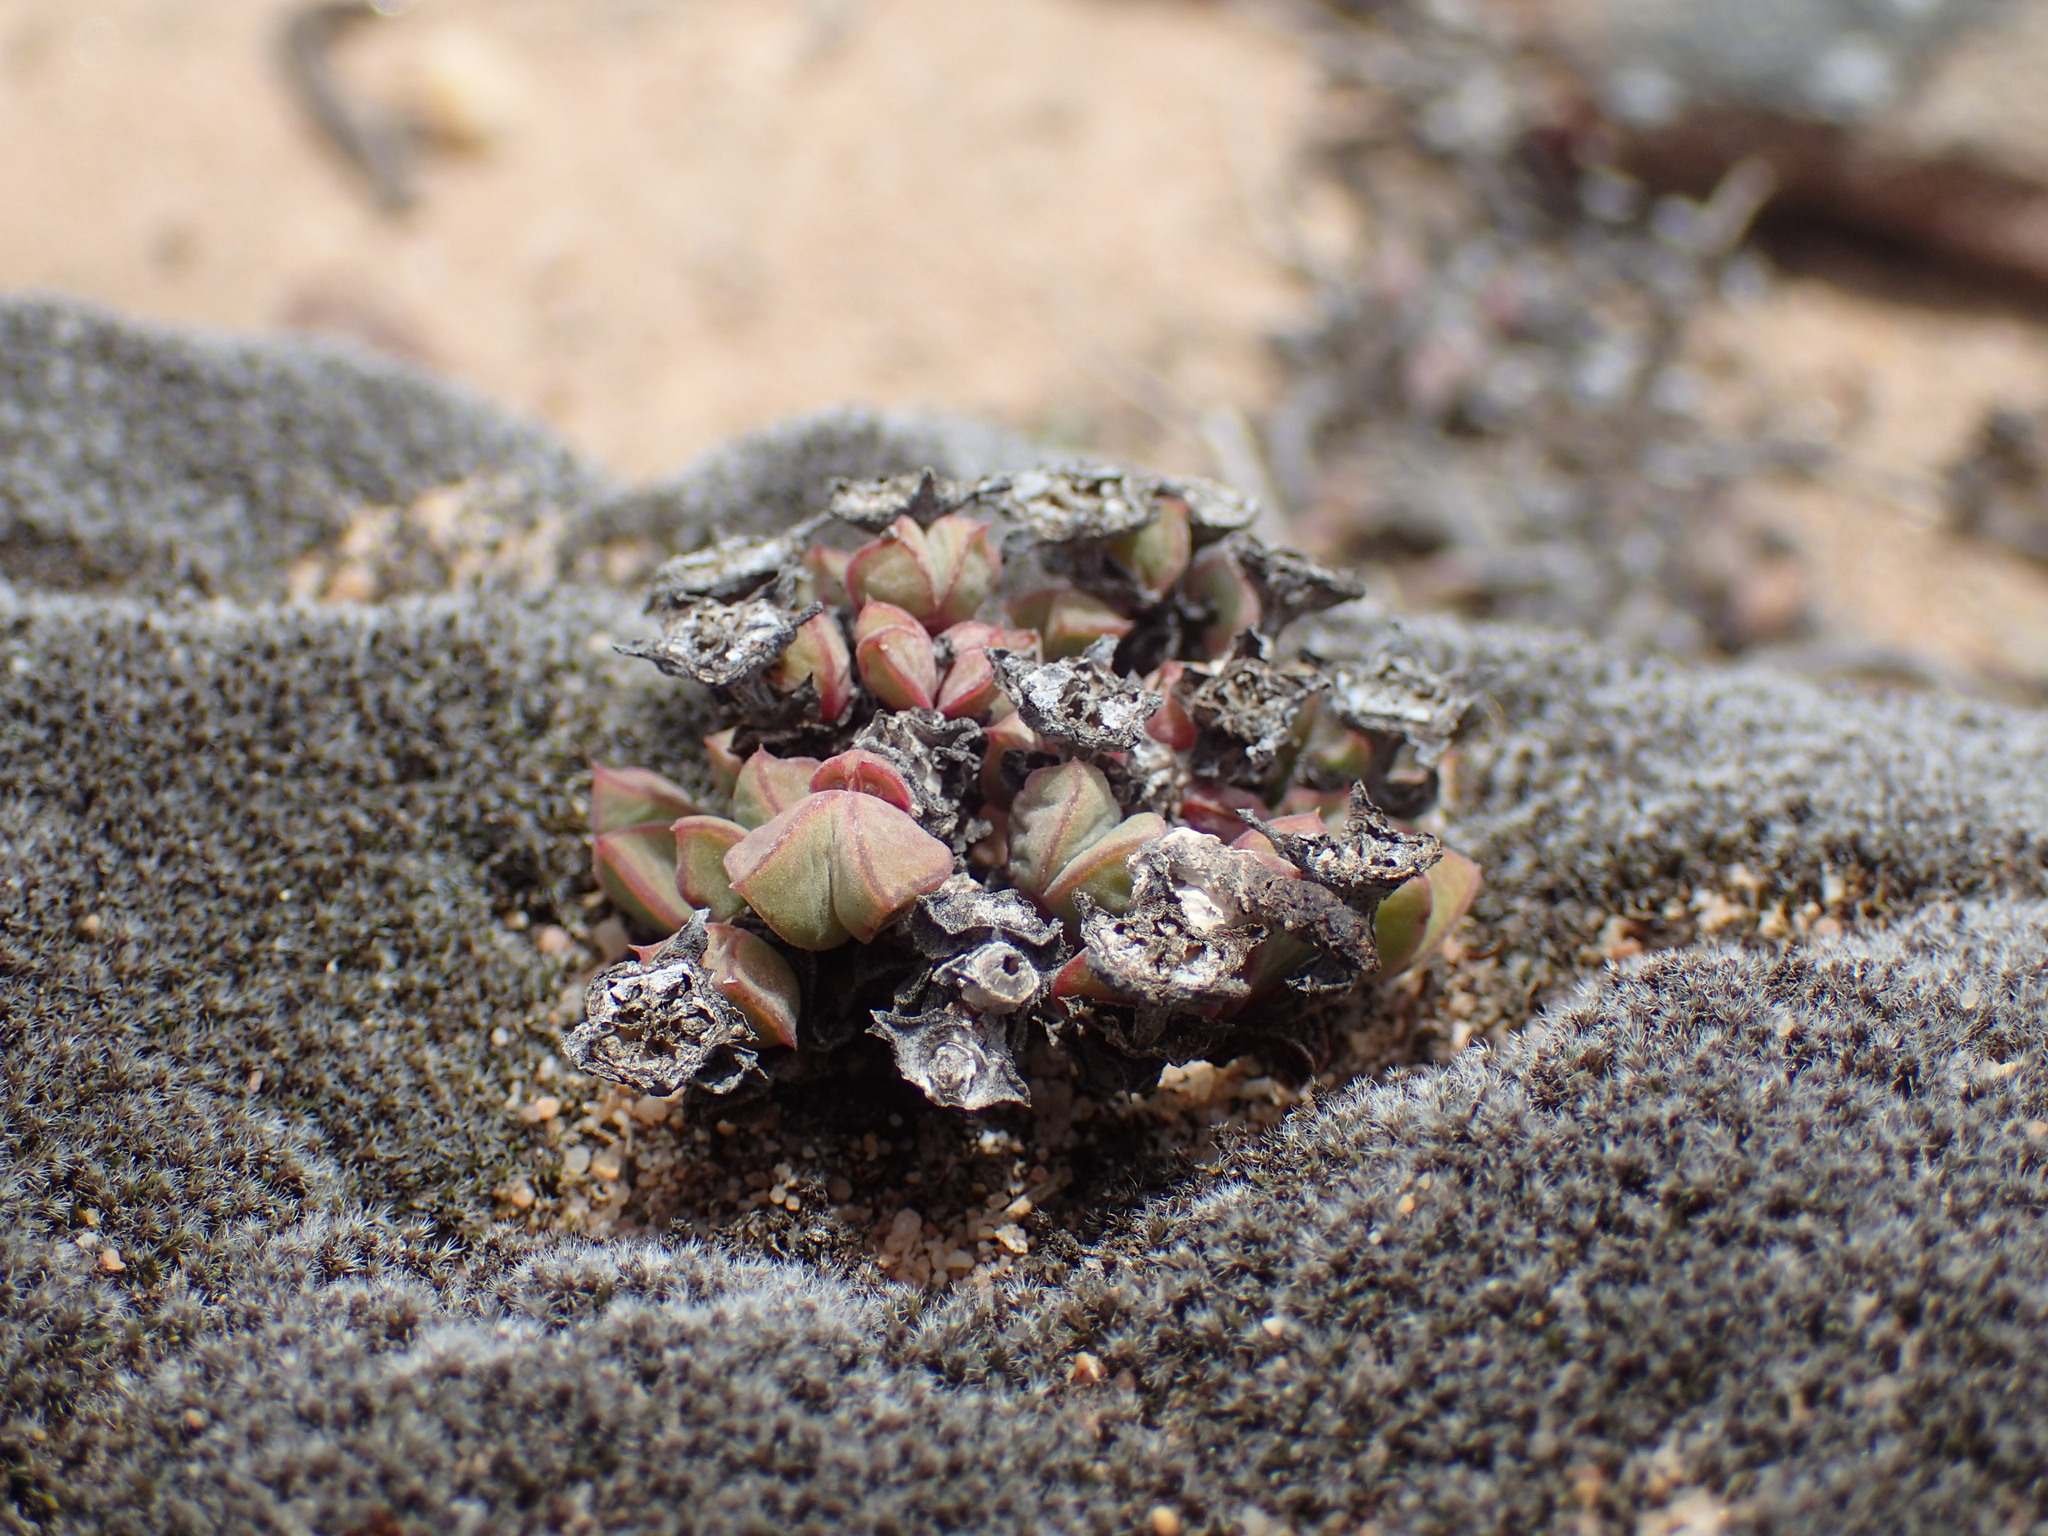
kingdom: Plantae
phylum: Tracheophyta
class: Magnoliopsida
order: Caryophyllales
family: Aizoaceae
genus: Antimima
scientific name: Antimima limbata
